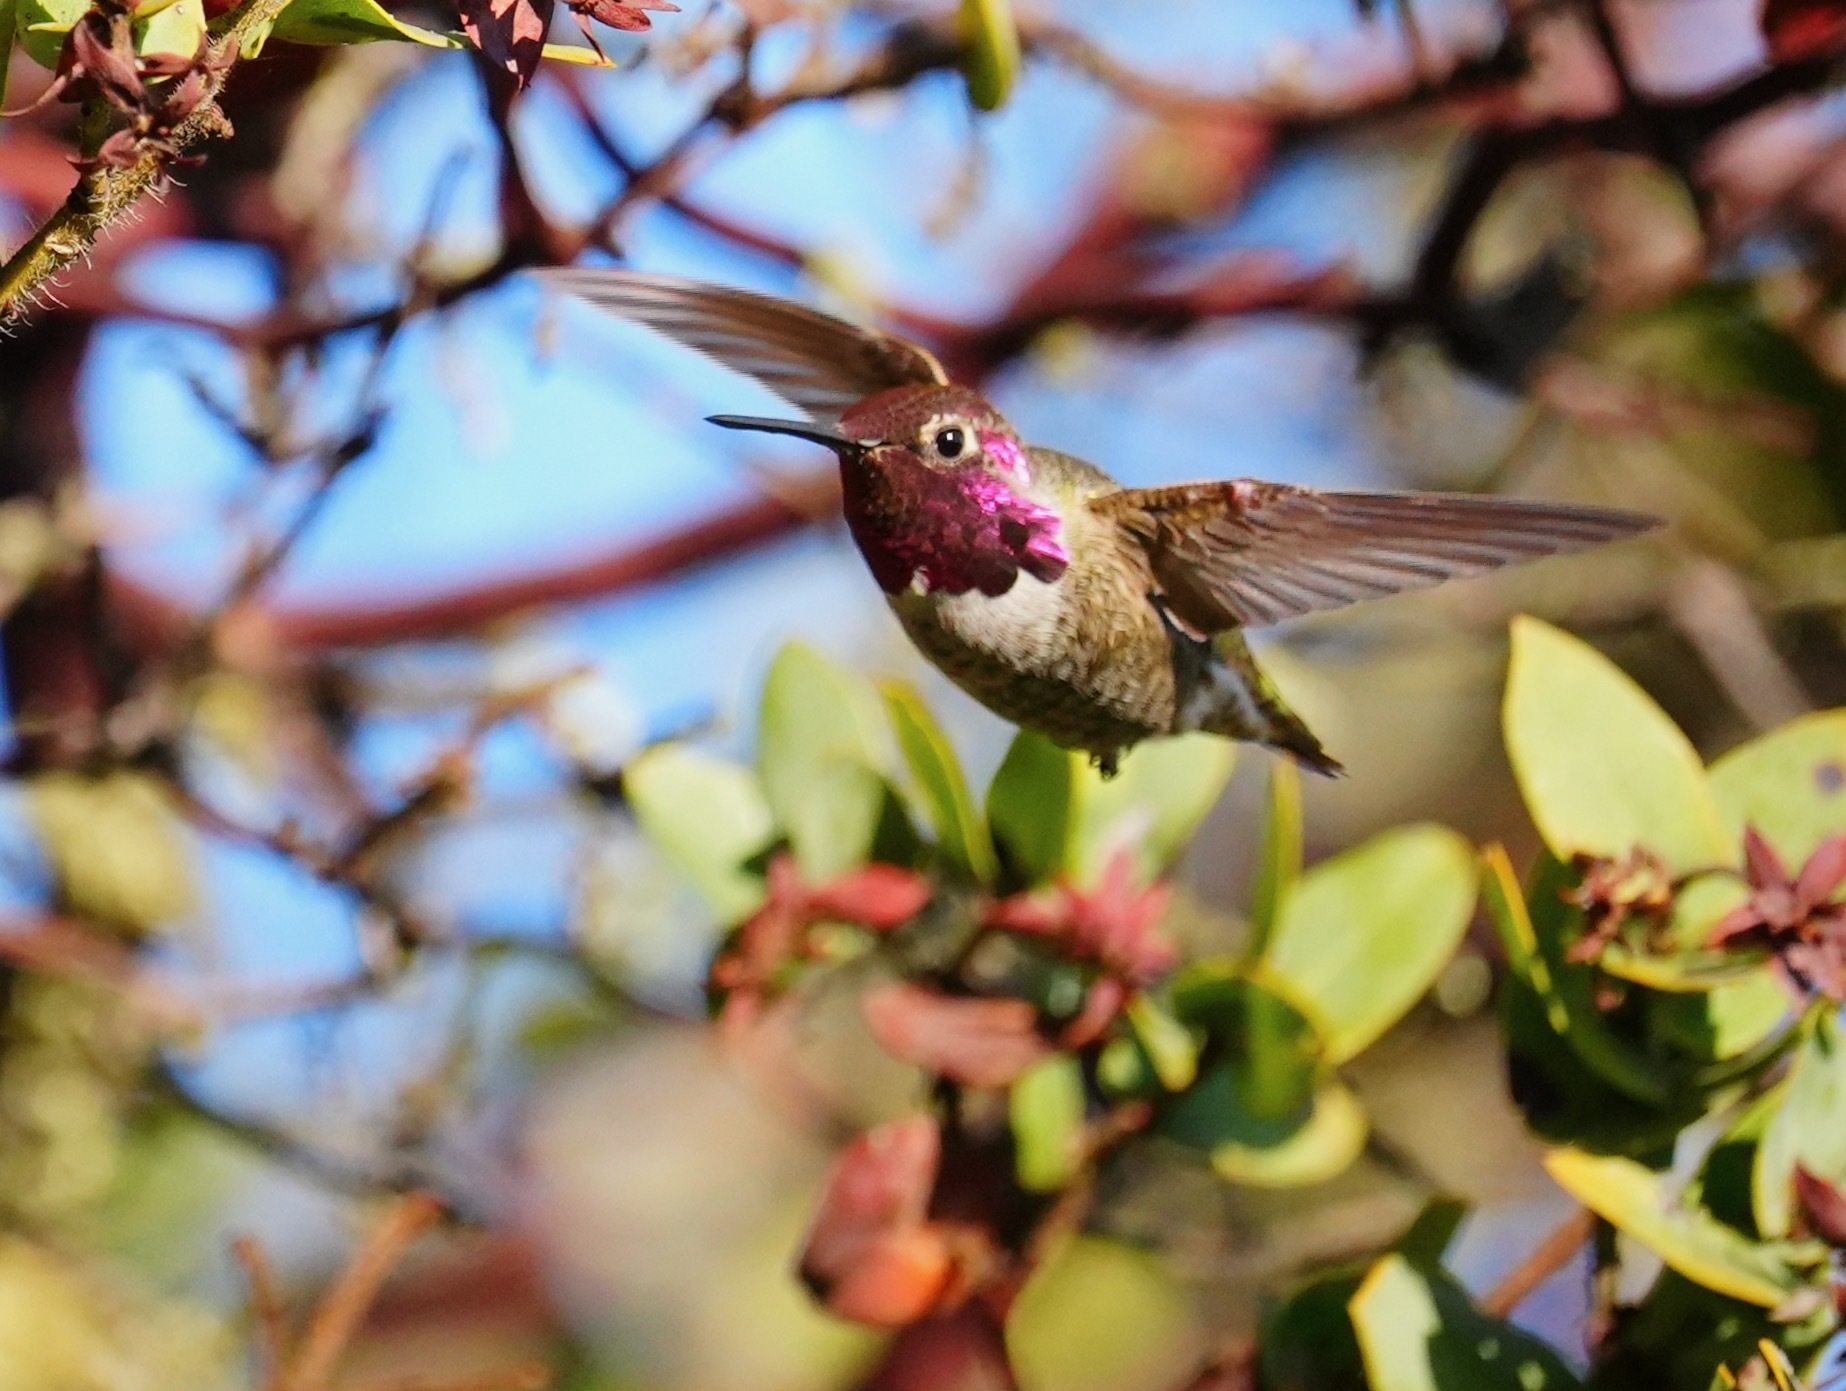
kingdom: Animalia
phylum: Chordata
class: Aves
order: Apodiformes
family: Trochilidae
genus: Calypte
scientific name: Calypte anna
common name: Anna's hummingbird
